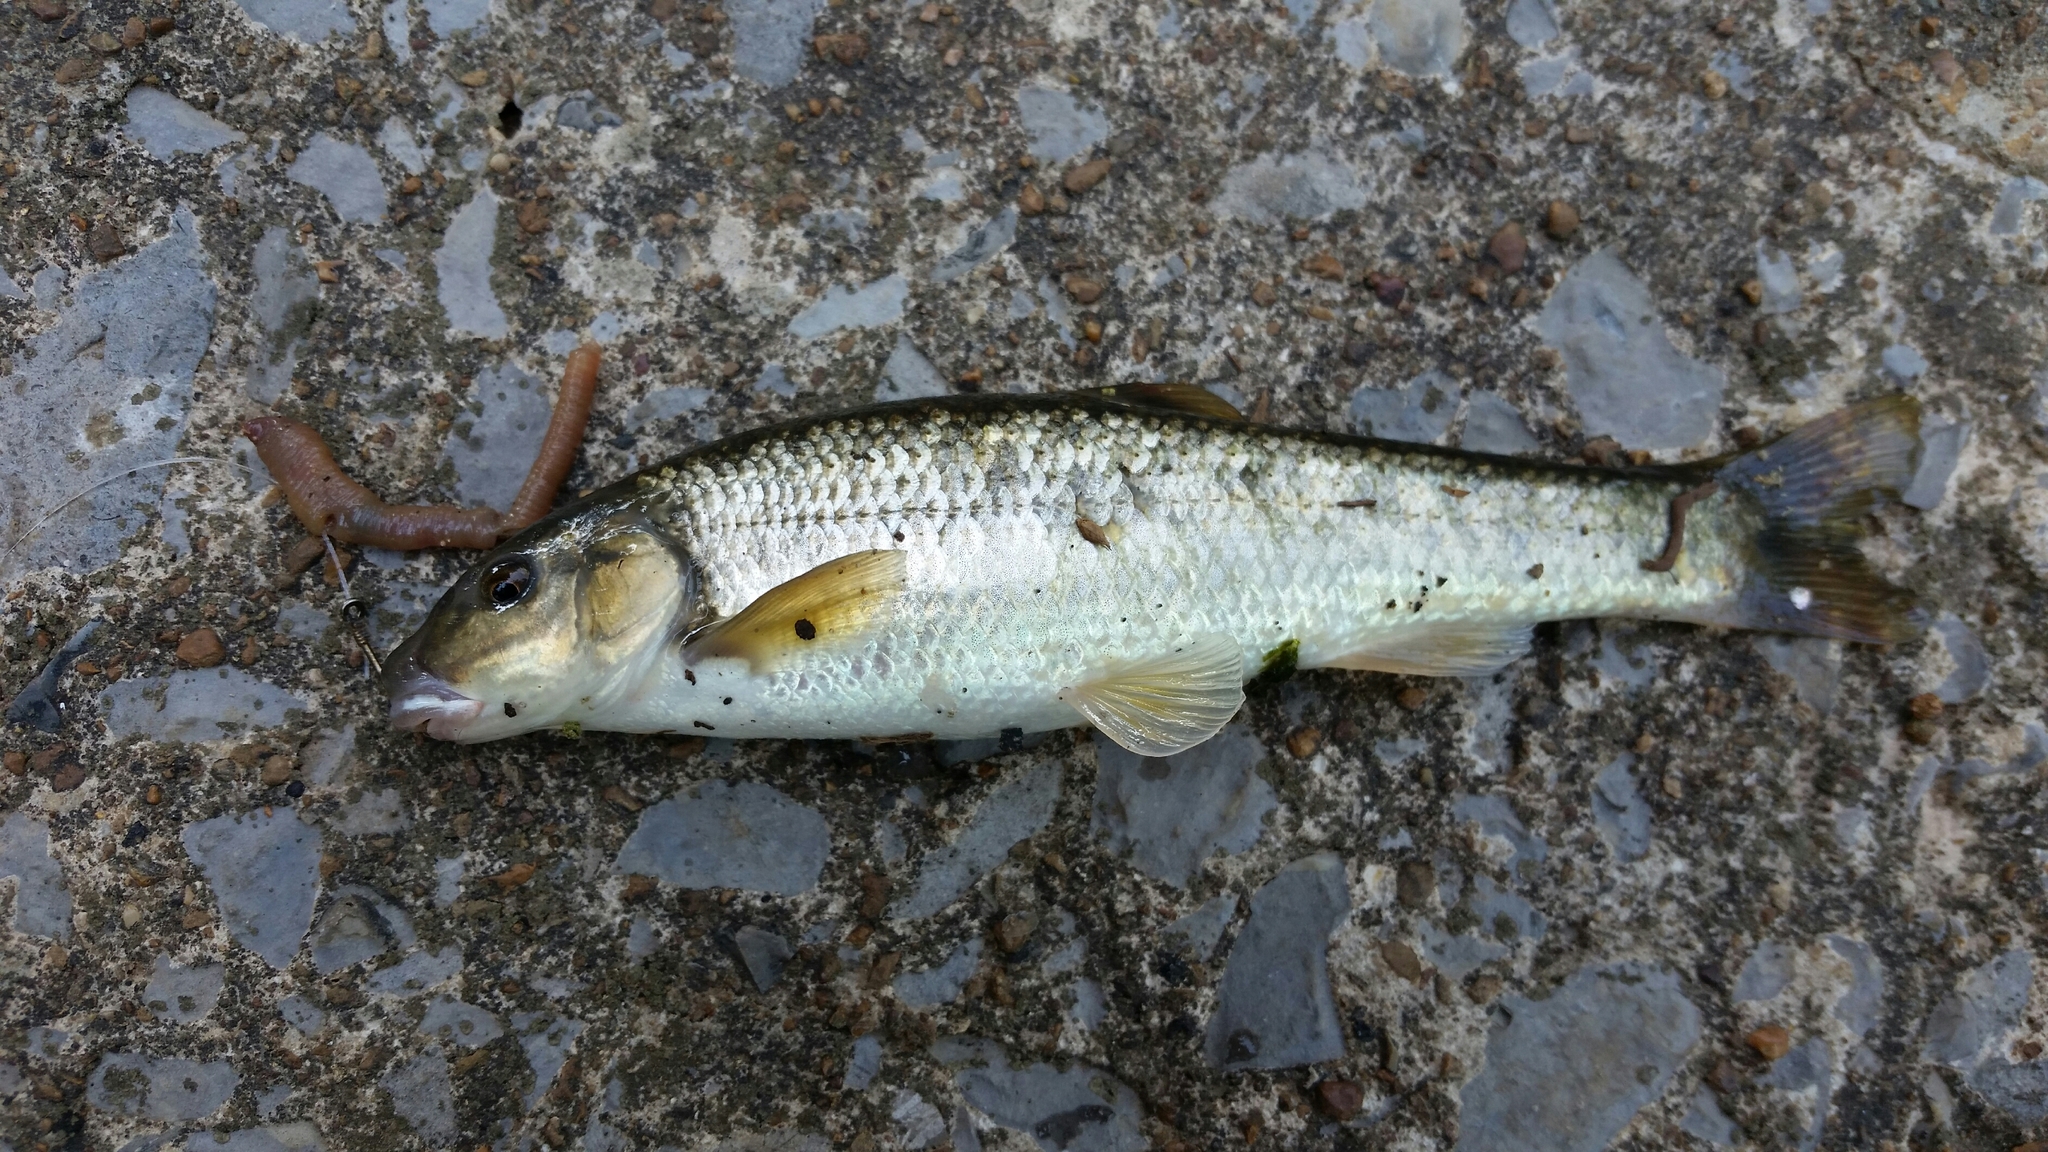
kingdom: Animalia
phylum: Chordata
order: Cypriniformes
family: Cyprinidae
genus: Campostoma
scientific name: Campostoma oligolepis
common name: Largescale stoneroller
